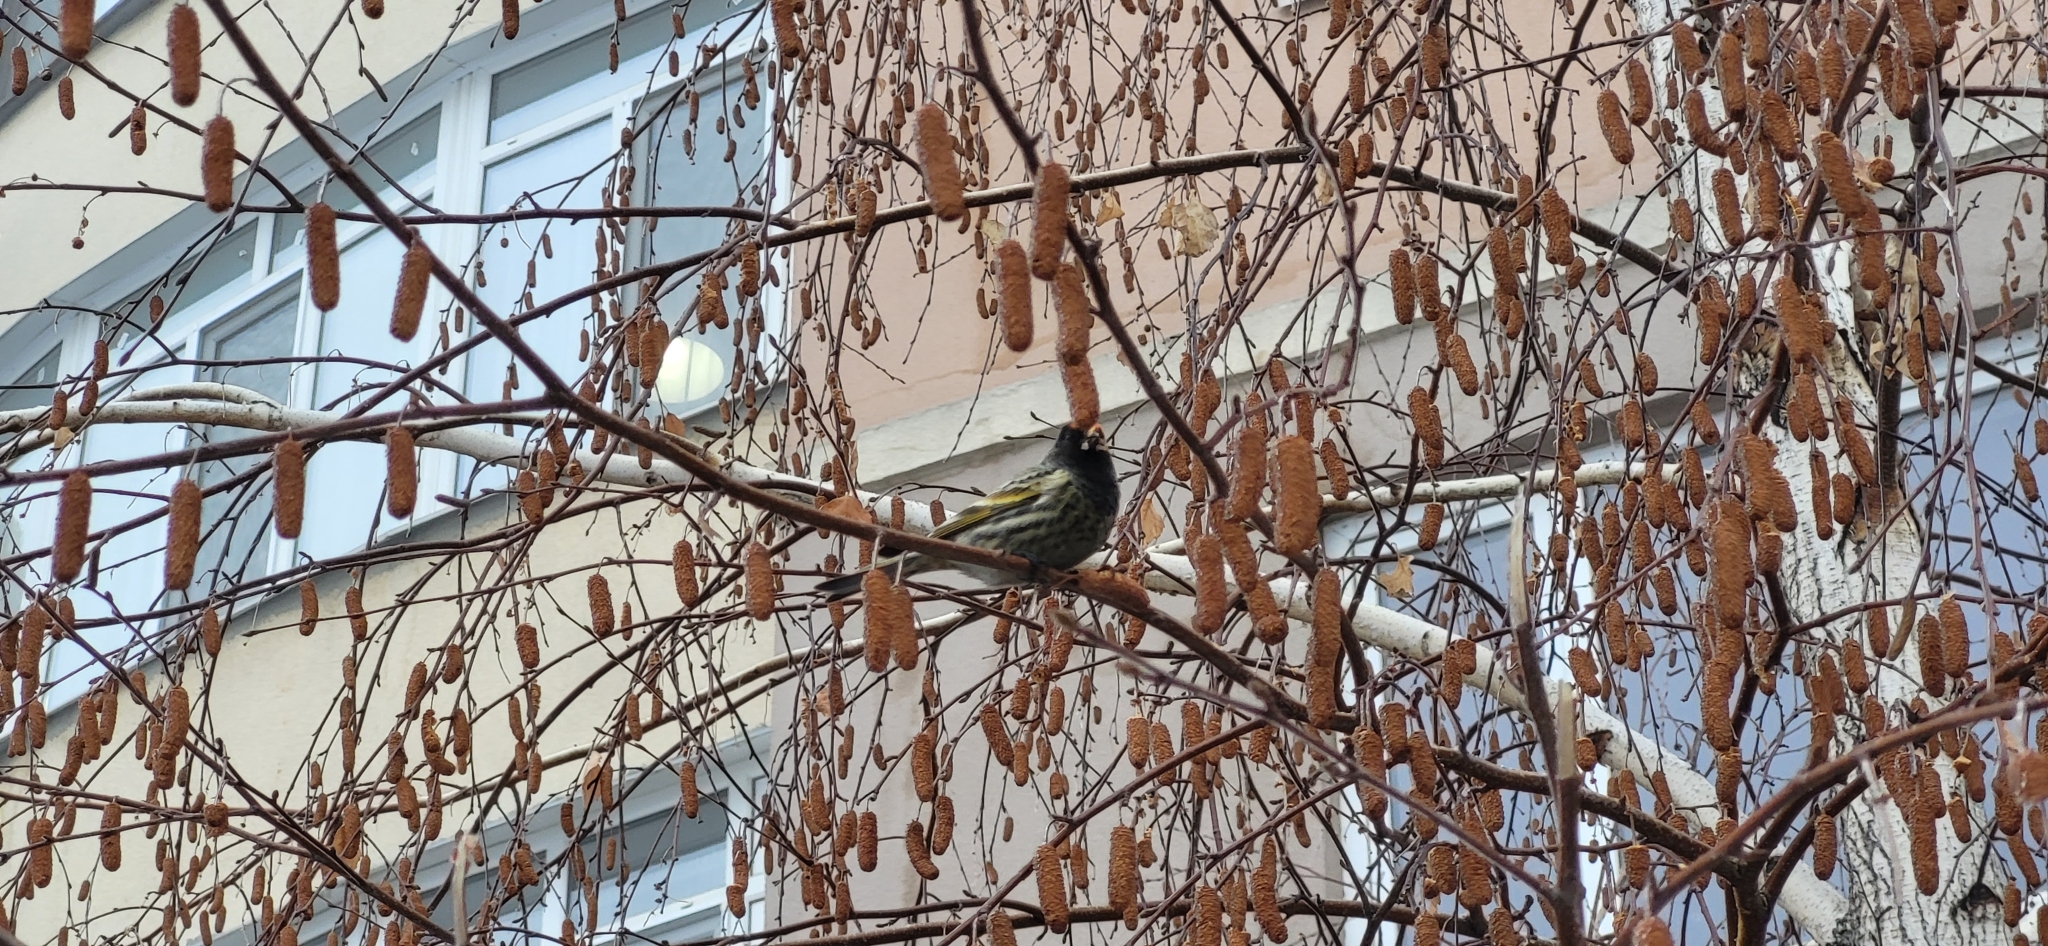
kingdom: Animalia
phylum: Chordata
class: Aves
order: Passeriformes
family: Fringillidae
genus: Serinus
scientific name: Serinus pusillus
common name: Red-fronted serin
